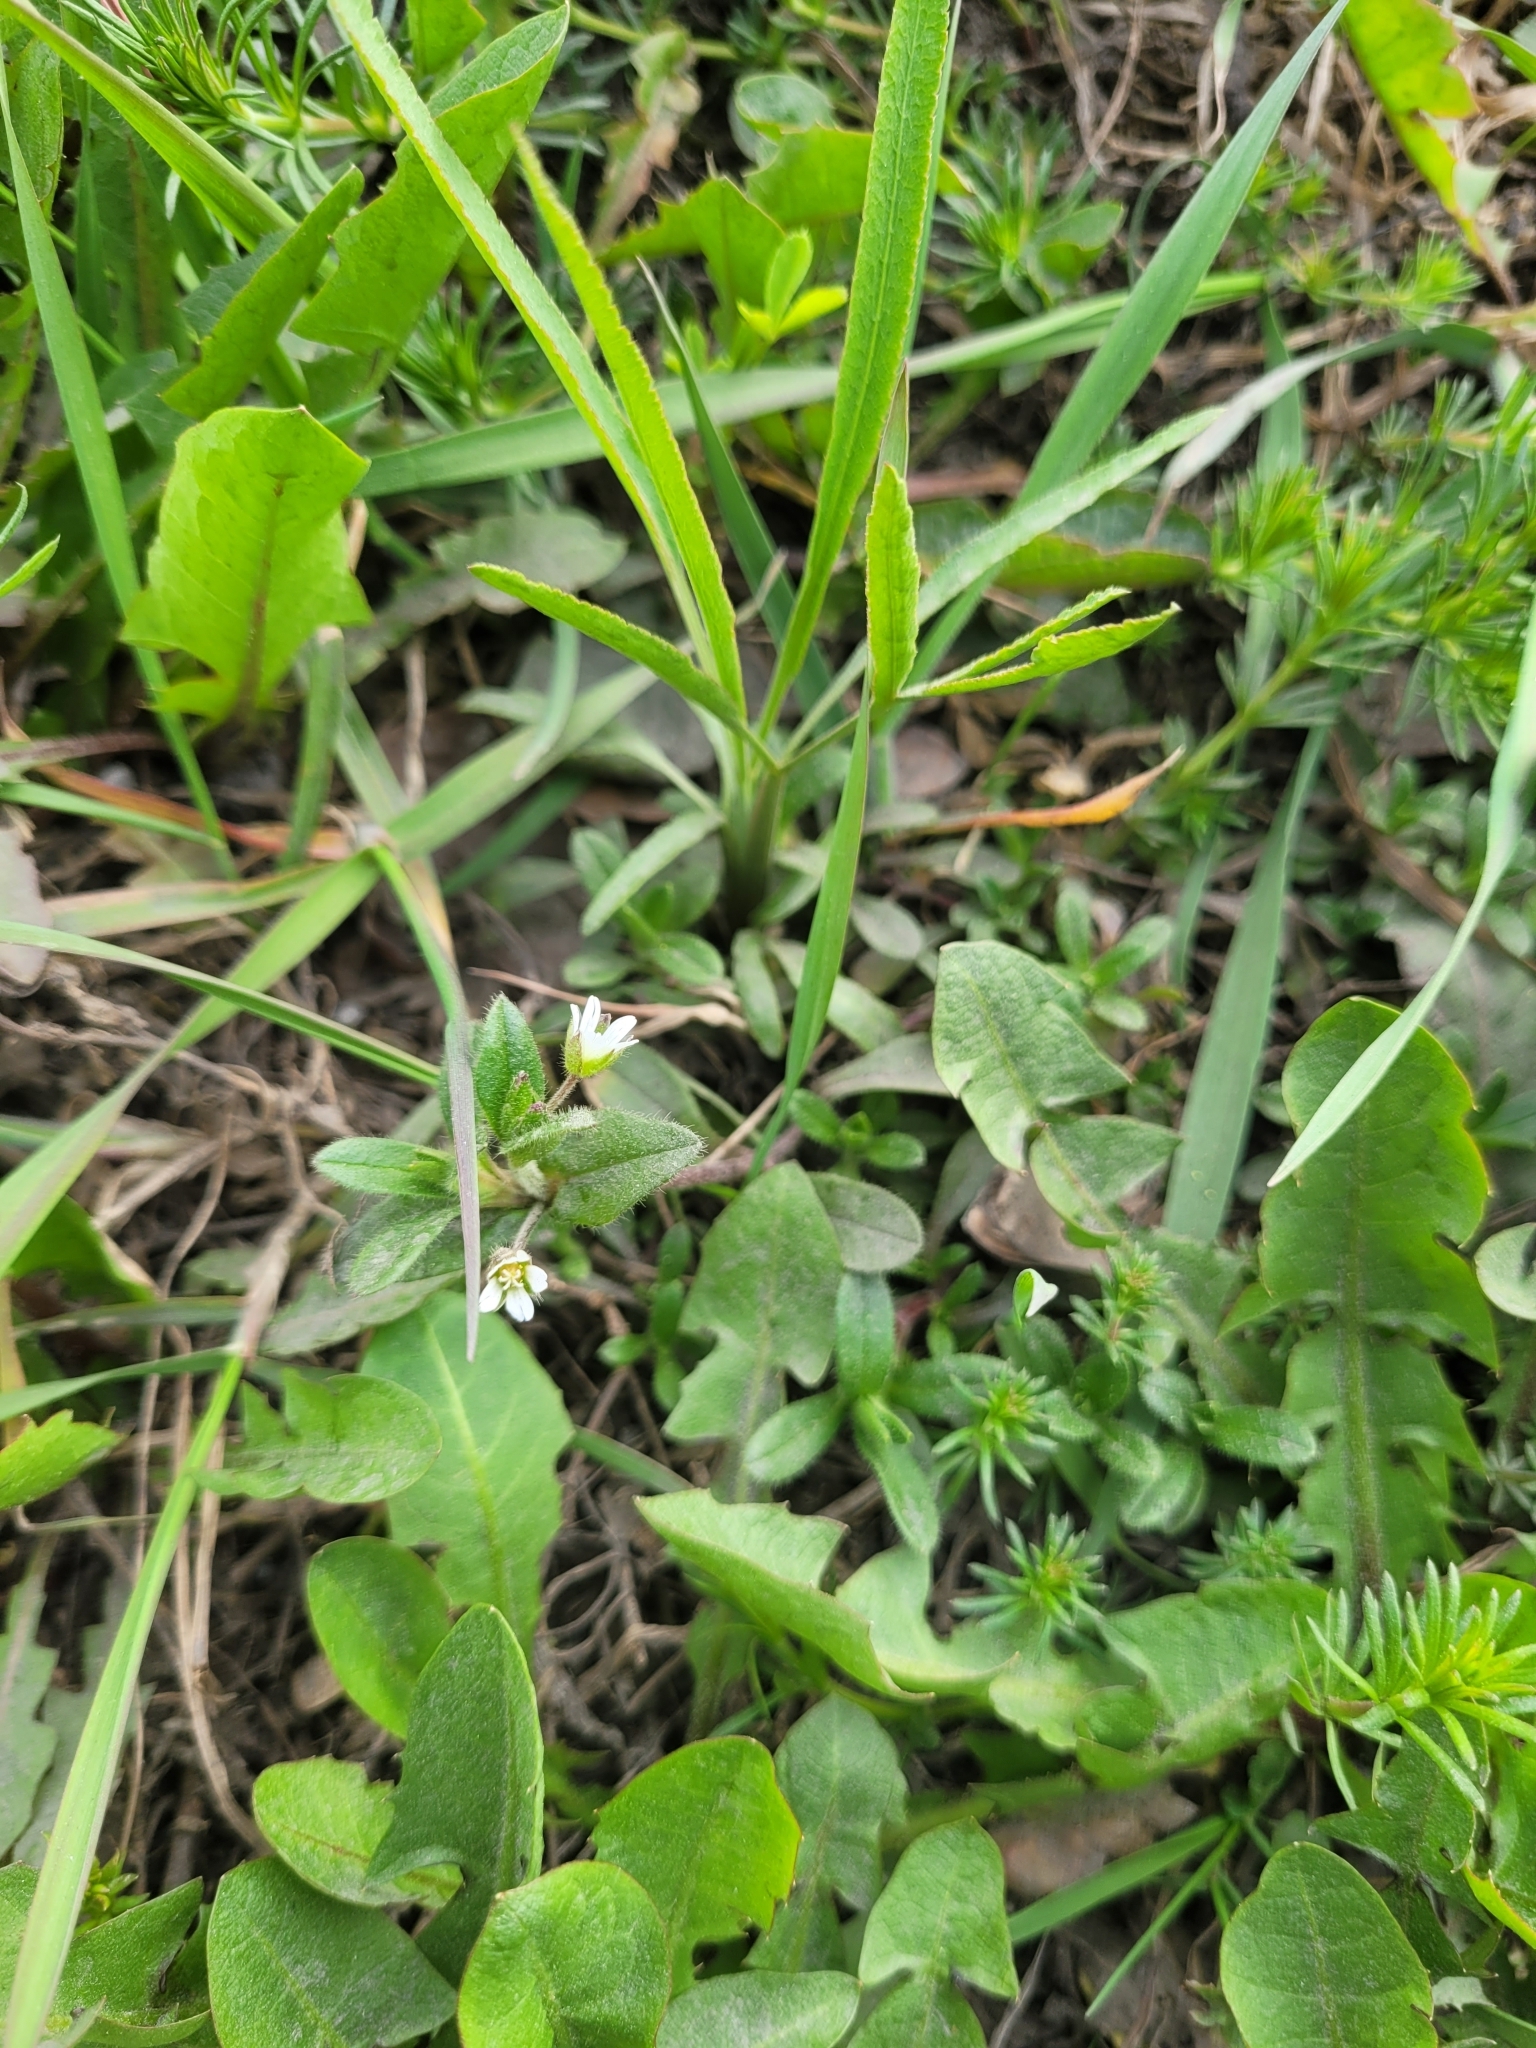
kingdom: Plantae
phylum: Tracheophyta
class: Magnoliopsida
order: Caryophyllales
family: Caryophyllaceae
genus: Cerastium
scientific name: Cerastium holosteoides
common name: Big chickweed
